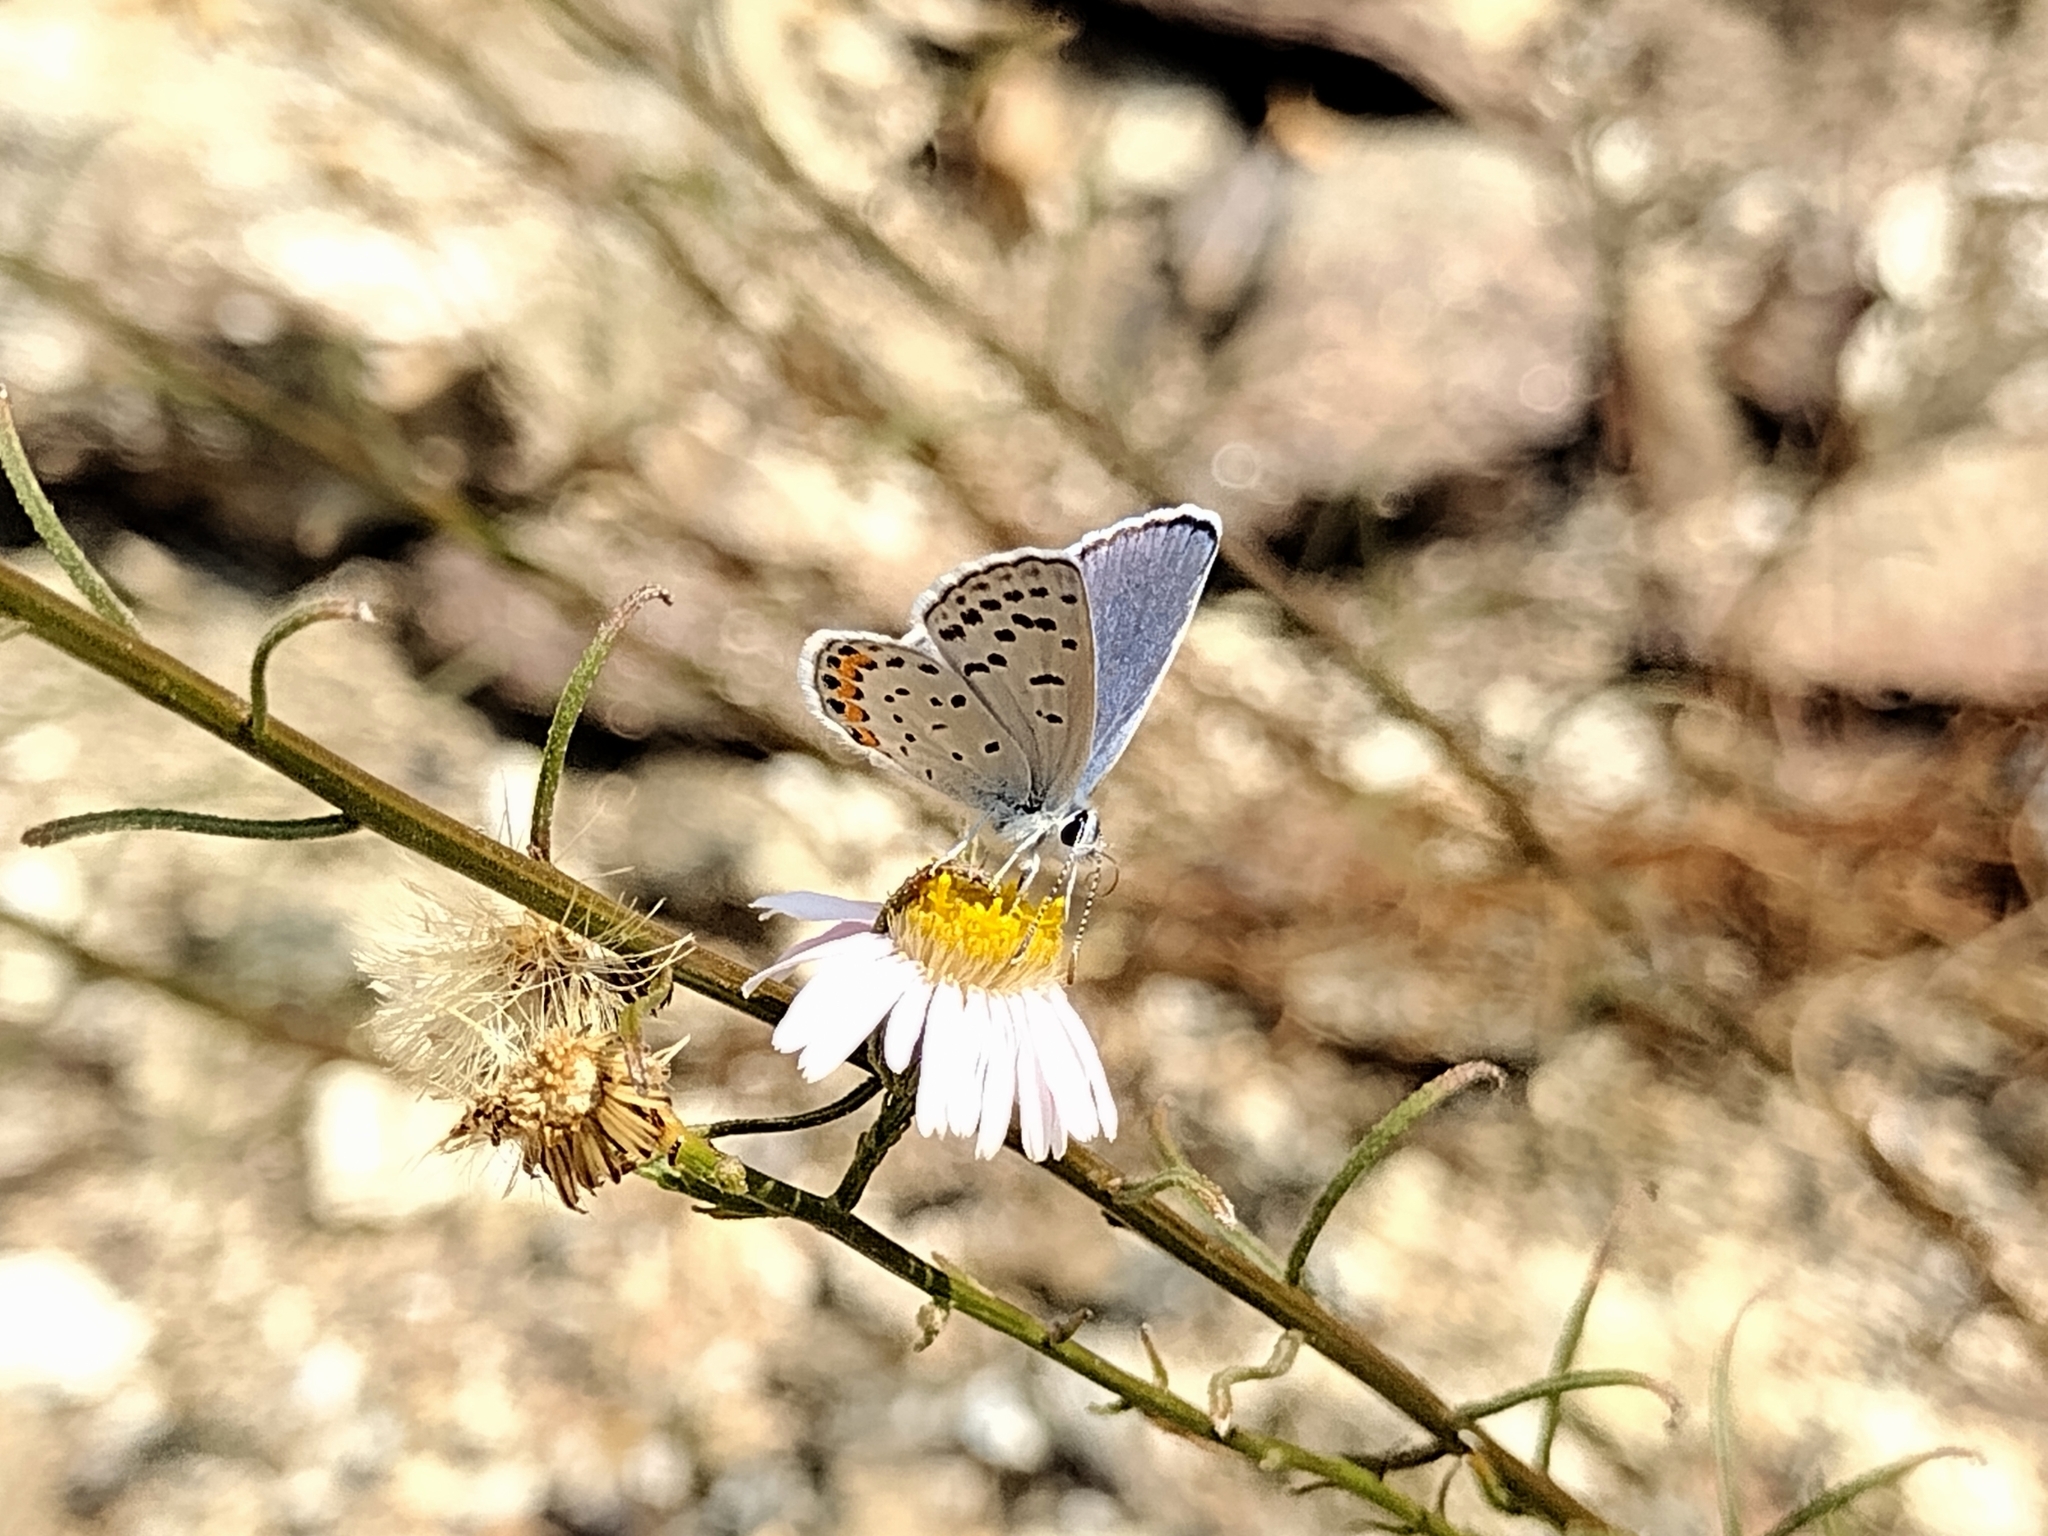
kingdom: Animalia
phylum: Arthropoda
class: Insecta
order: Lepidoptera
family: Lycaenidae
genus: Icaricia
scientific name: Icaricia acmon
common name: Acmon blue
